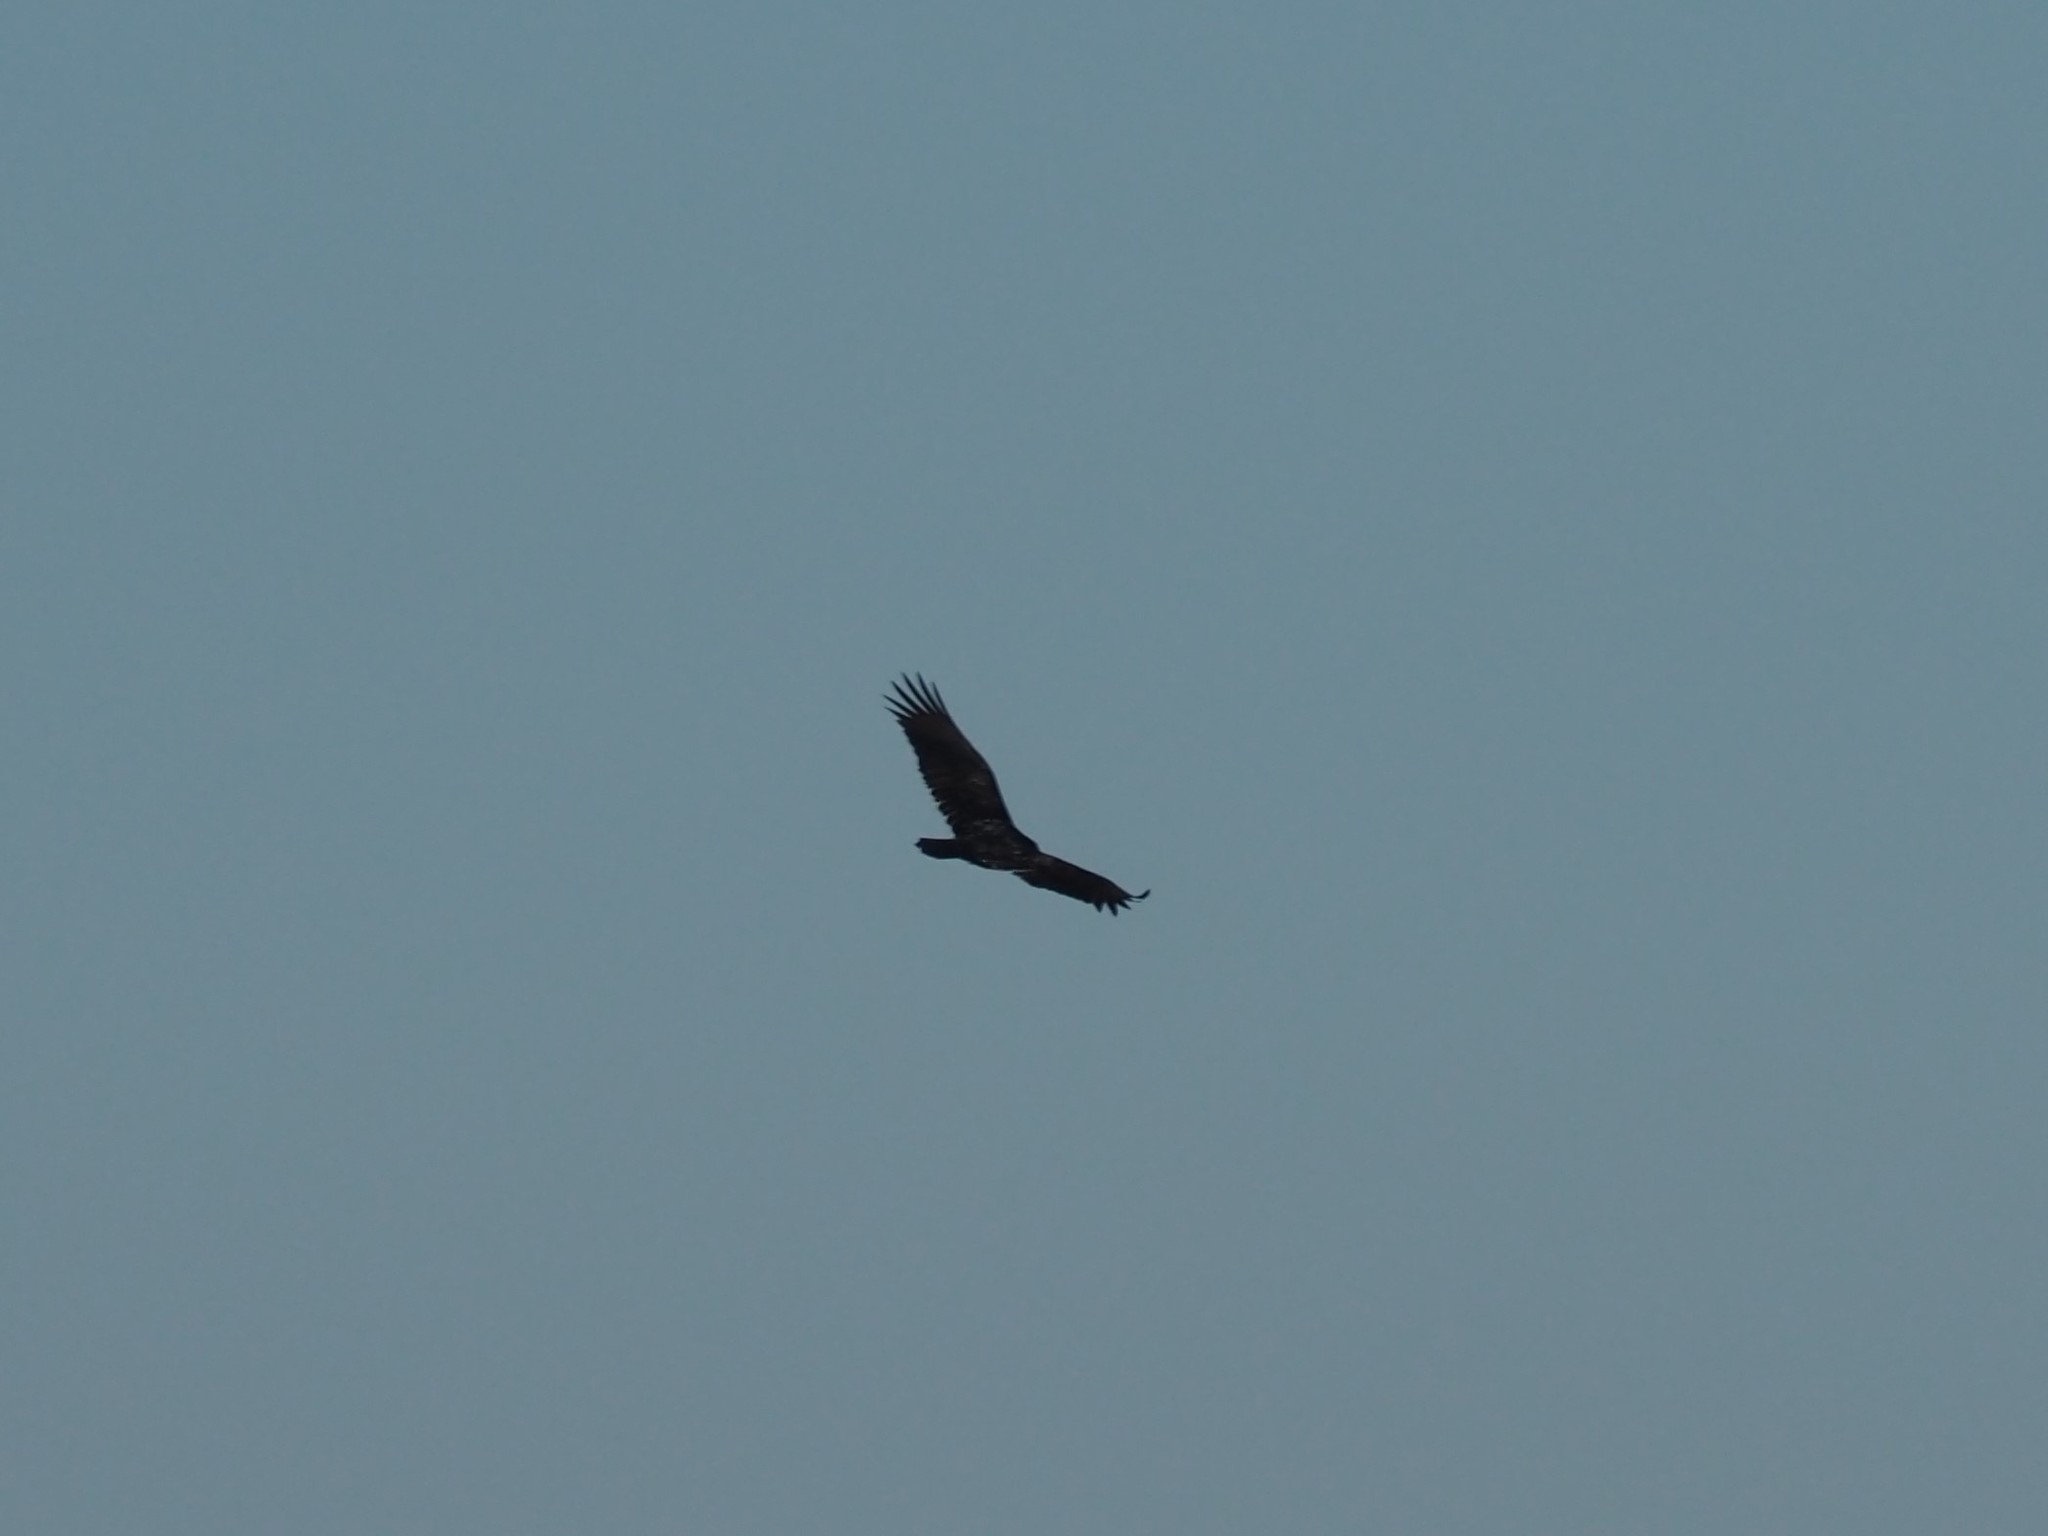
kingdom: Animalia
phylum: Chordata
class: Aves
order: Accipitriformes
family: Cathartidae
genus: Cathartes
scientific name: Cathartes aura
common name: Turkey vulture
